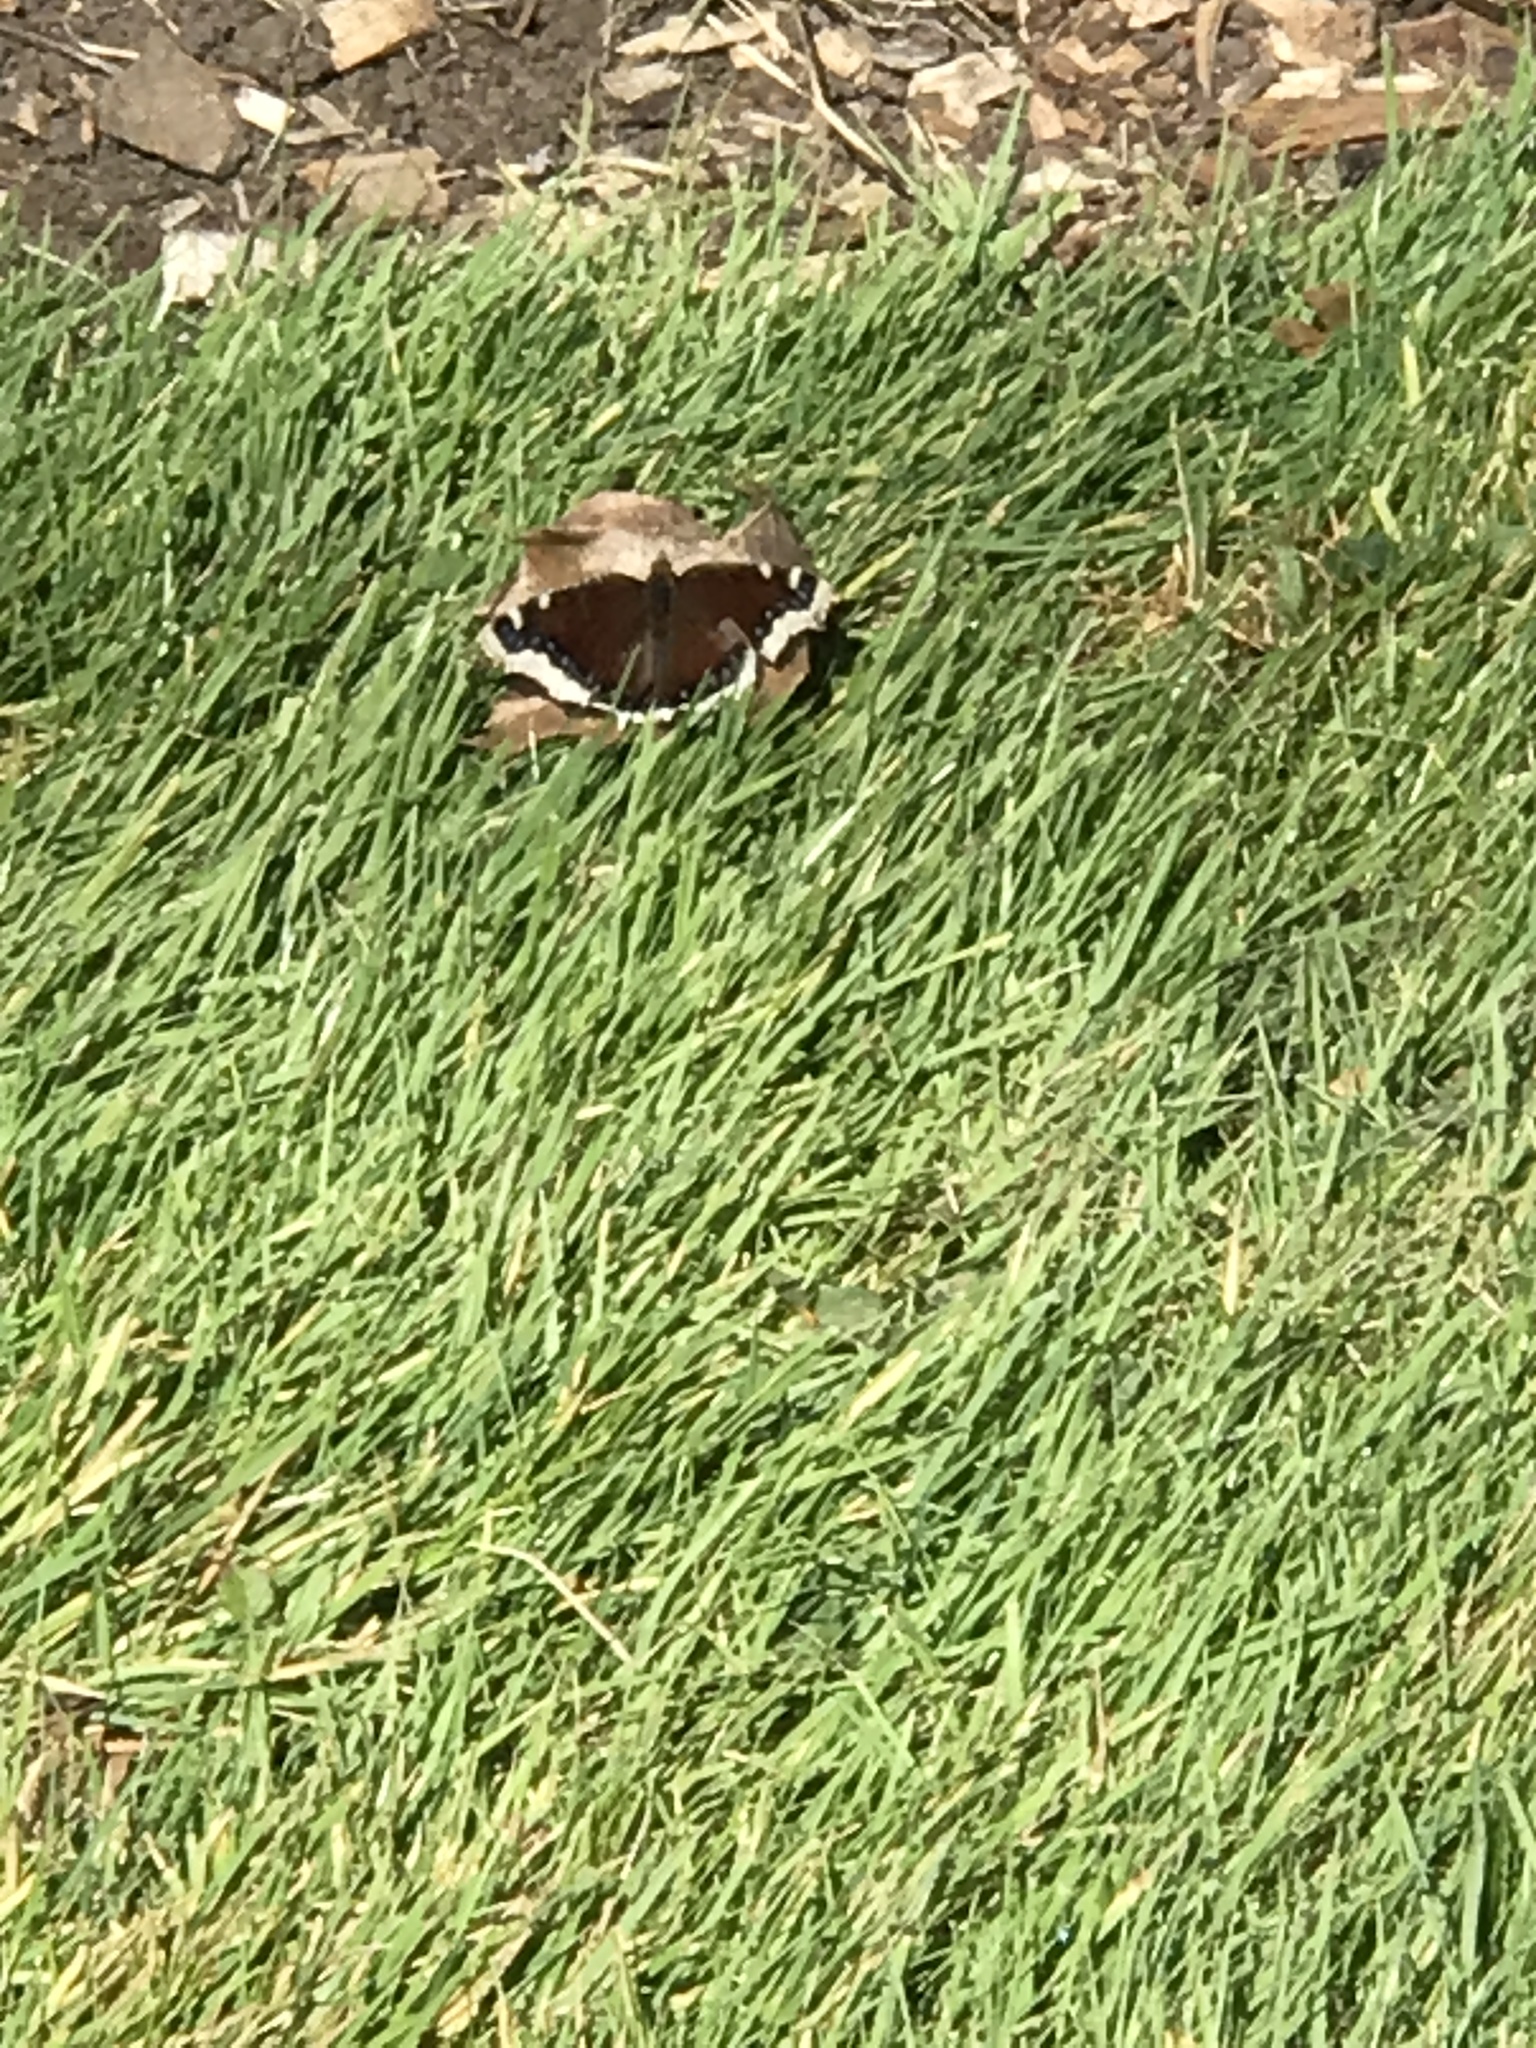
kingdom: Animalia
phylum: Arthropoda
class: Insecta
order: Lepidoptera
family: Nymphalidae
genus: Nymphalis
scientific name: Nymphalis antiopa
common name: Camberwell beauty
